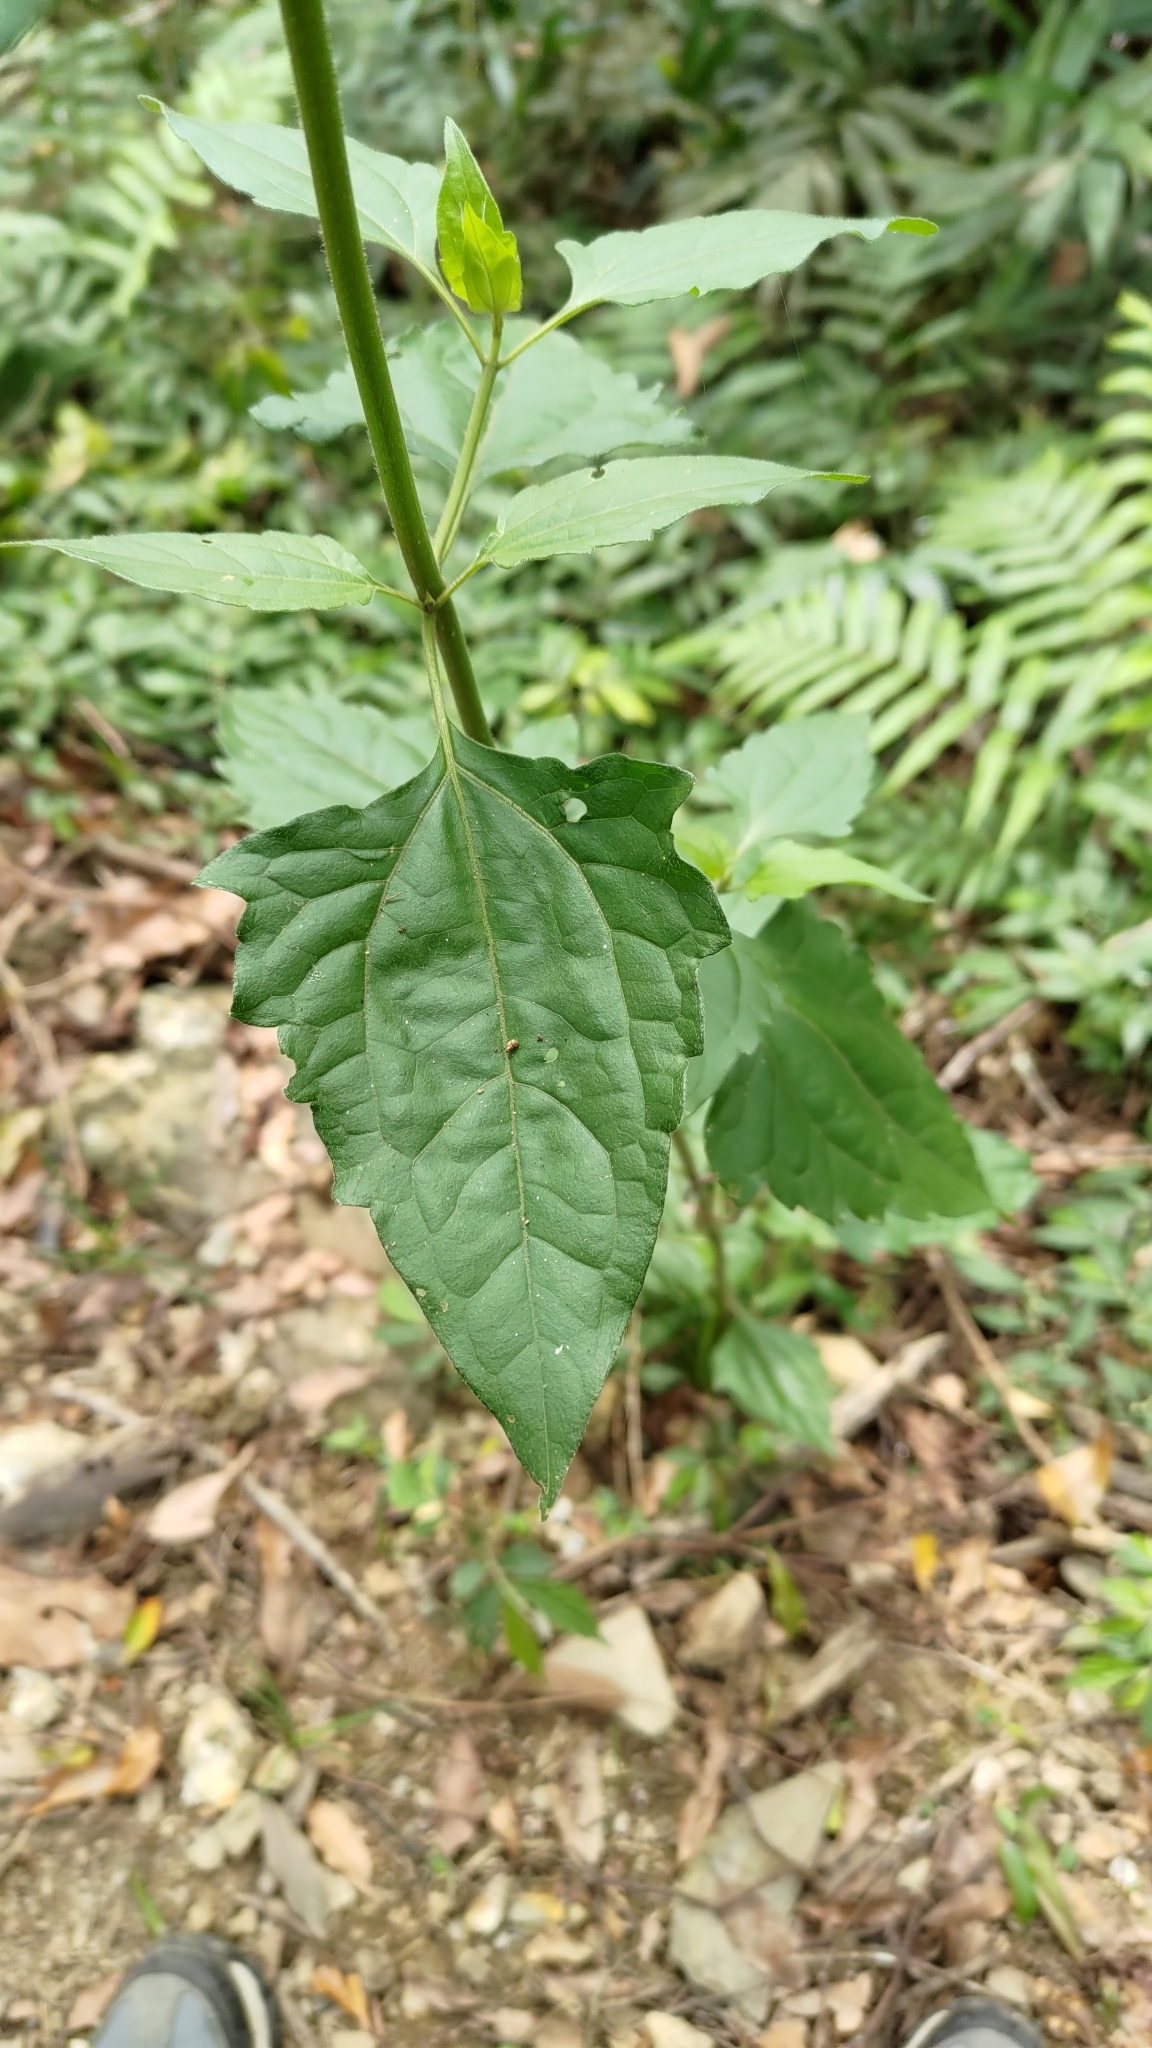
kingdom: Plantae
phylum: Tracheophyta
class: Magnoliopsida
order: Asterales
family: Asteraceae
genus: Chromolaena
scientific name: Chromolaena odorata
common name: Siamweed
